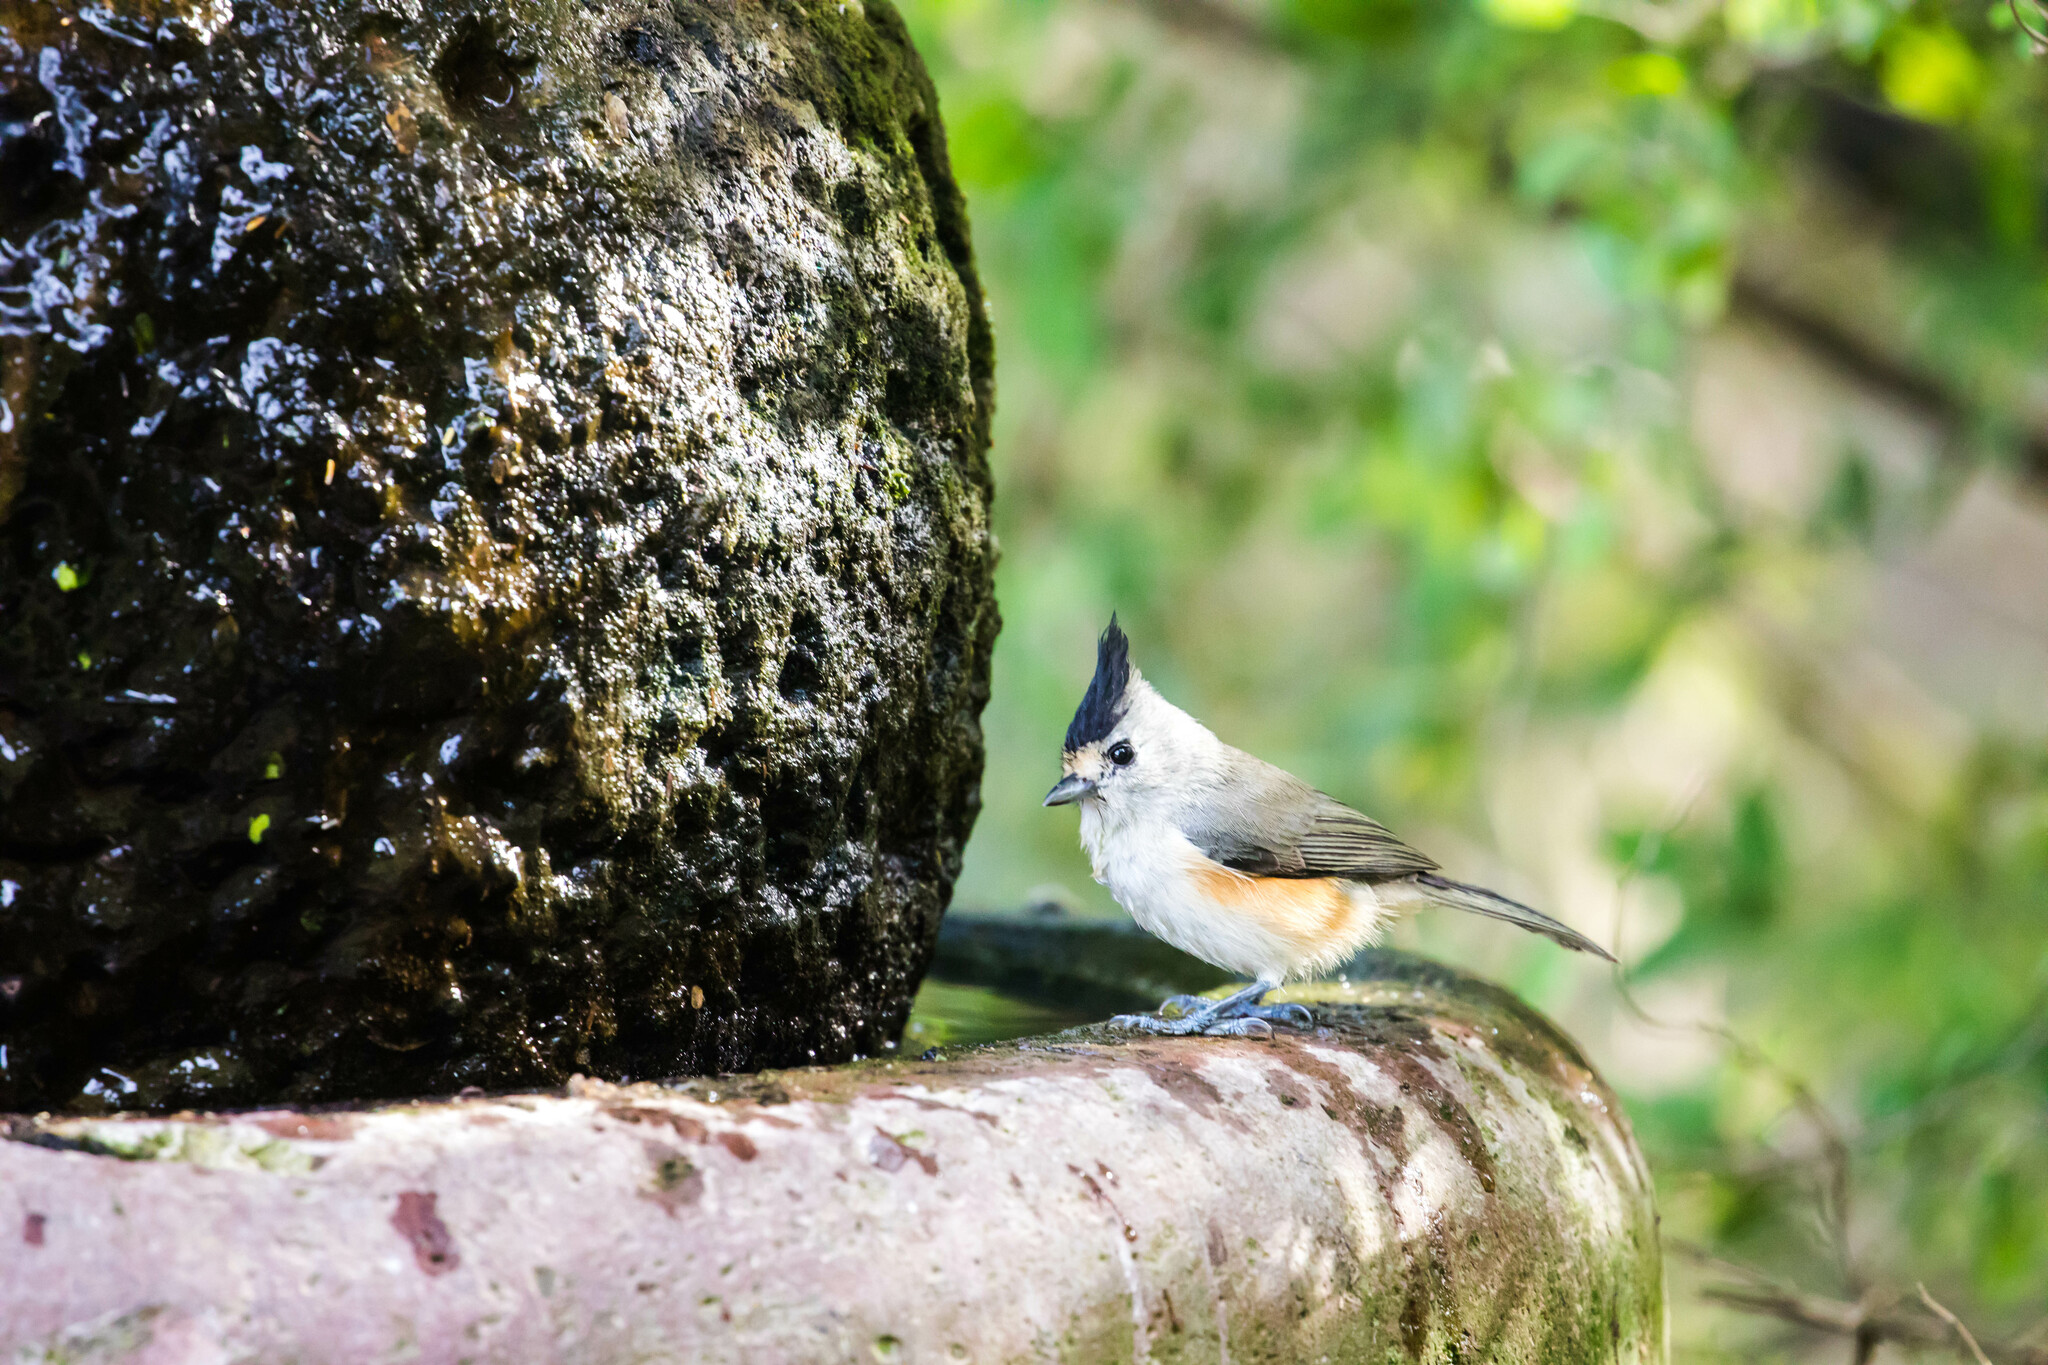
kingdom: Animalia
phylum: Chordata
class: Aves
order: Passeriformes
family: Paridae
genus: Baeolophus
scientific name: Baeolophus atricristatus
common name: Black-crested titmouse
